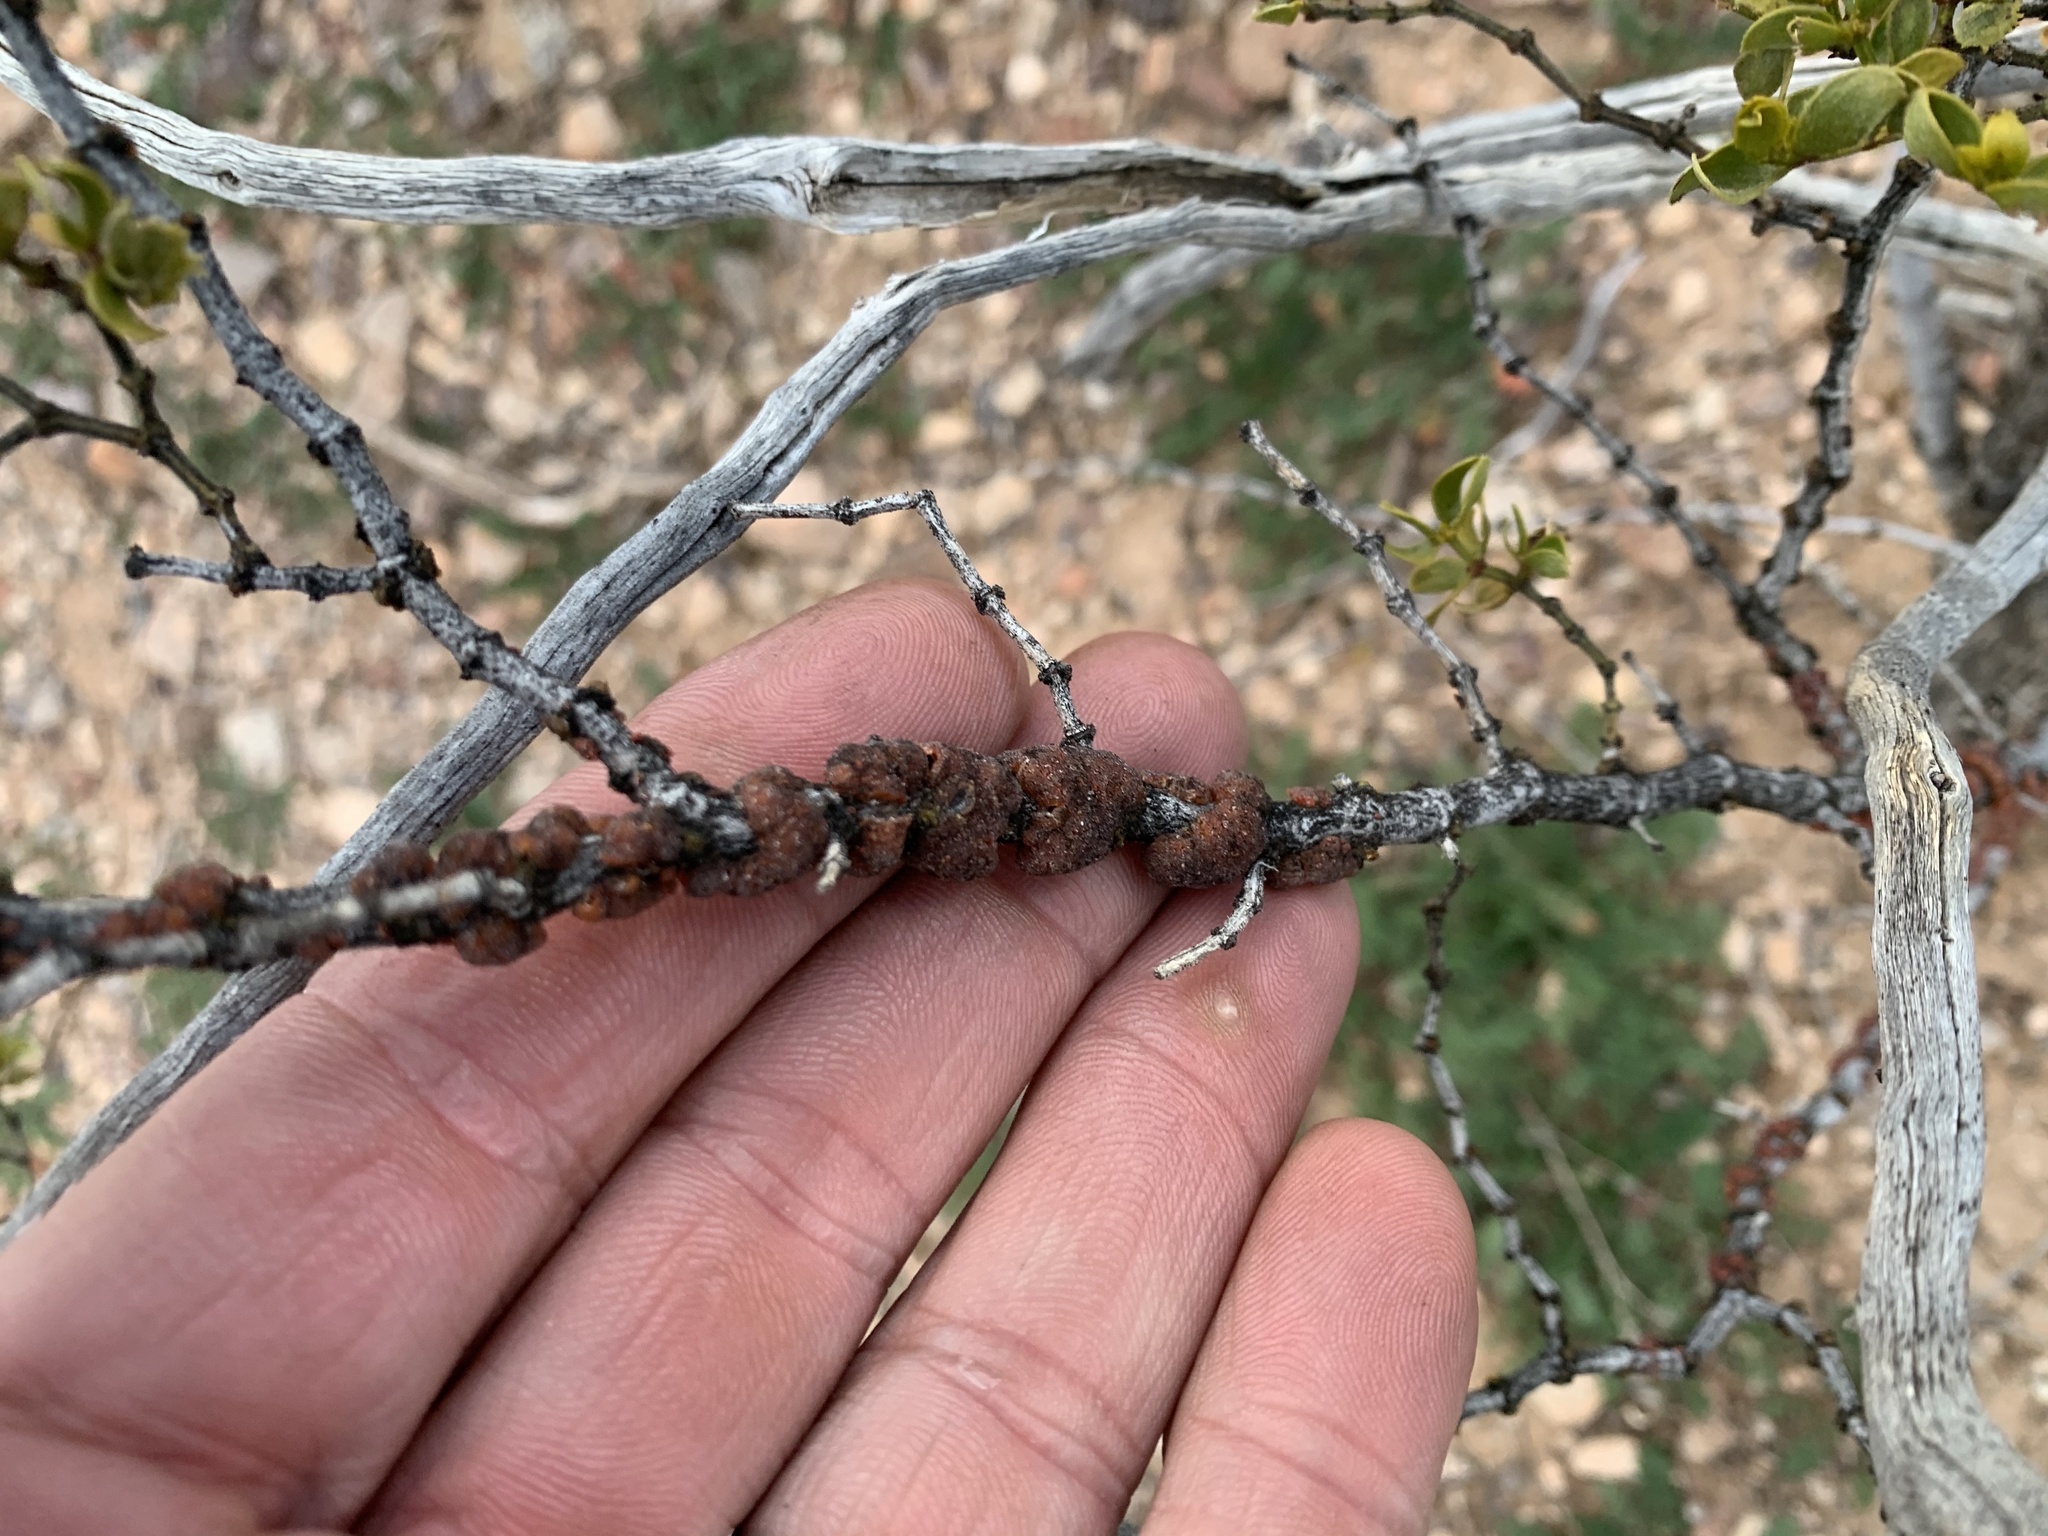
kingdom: Animalia
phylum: Arthropoda
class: Insecta
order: Hemiptera
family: Kerriidae
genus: Tachardiella
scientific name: Tachardiella larreae
